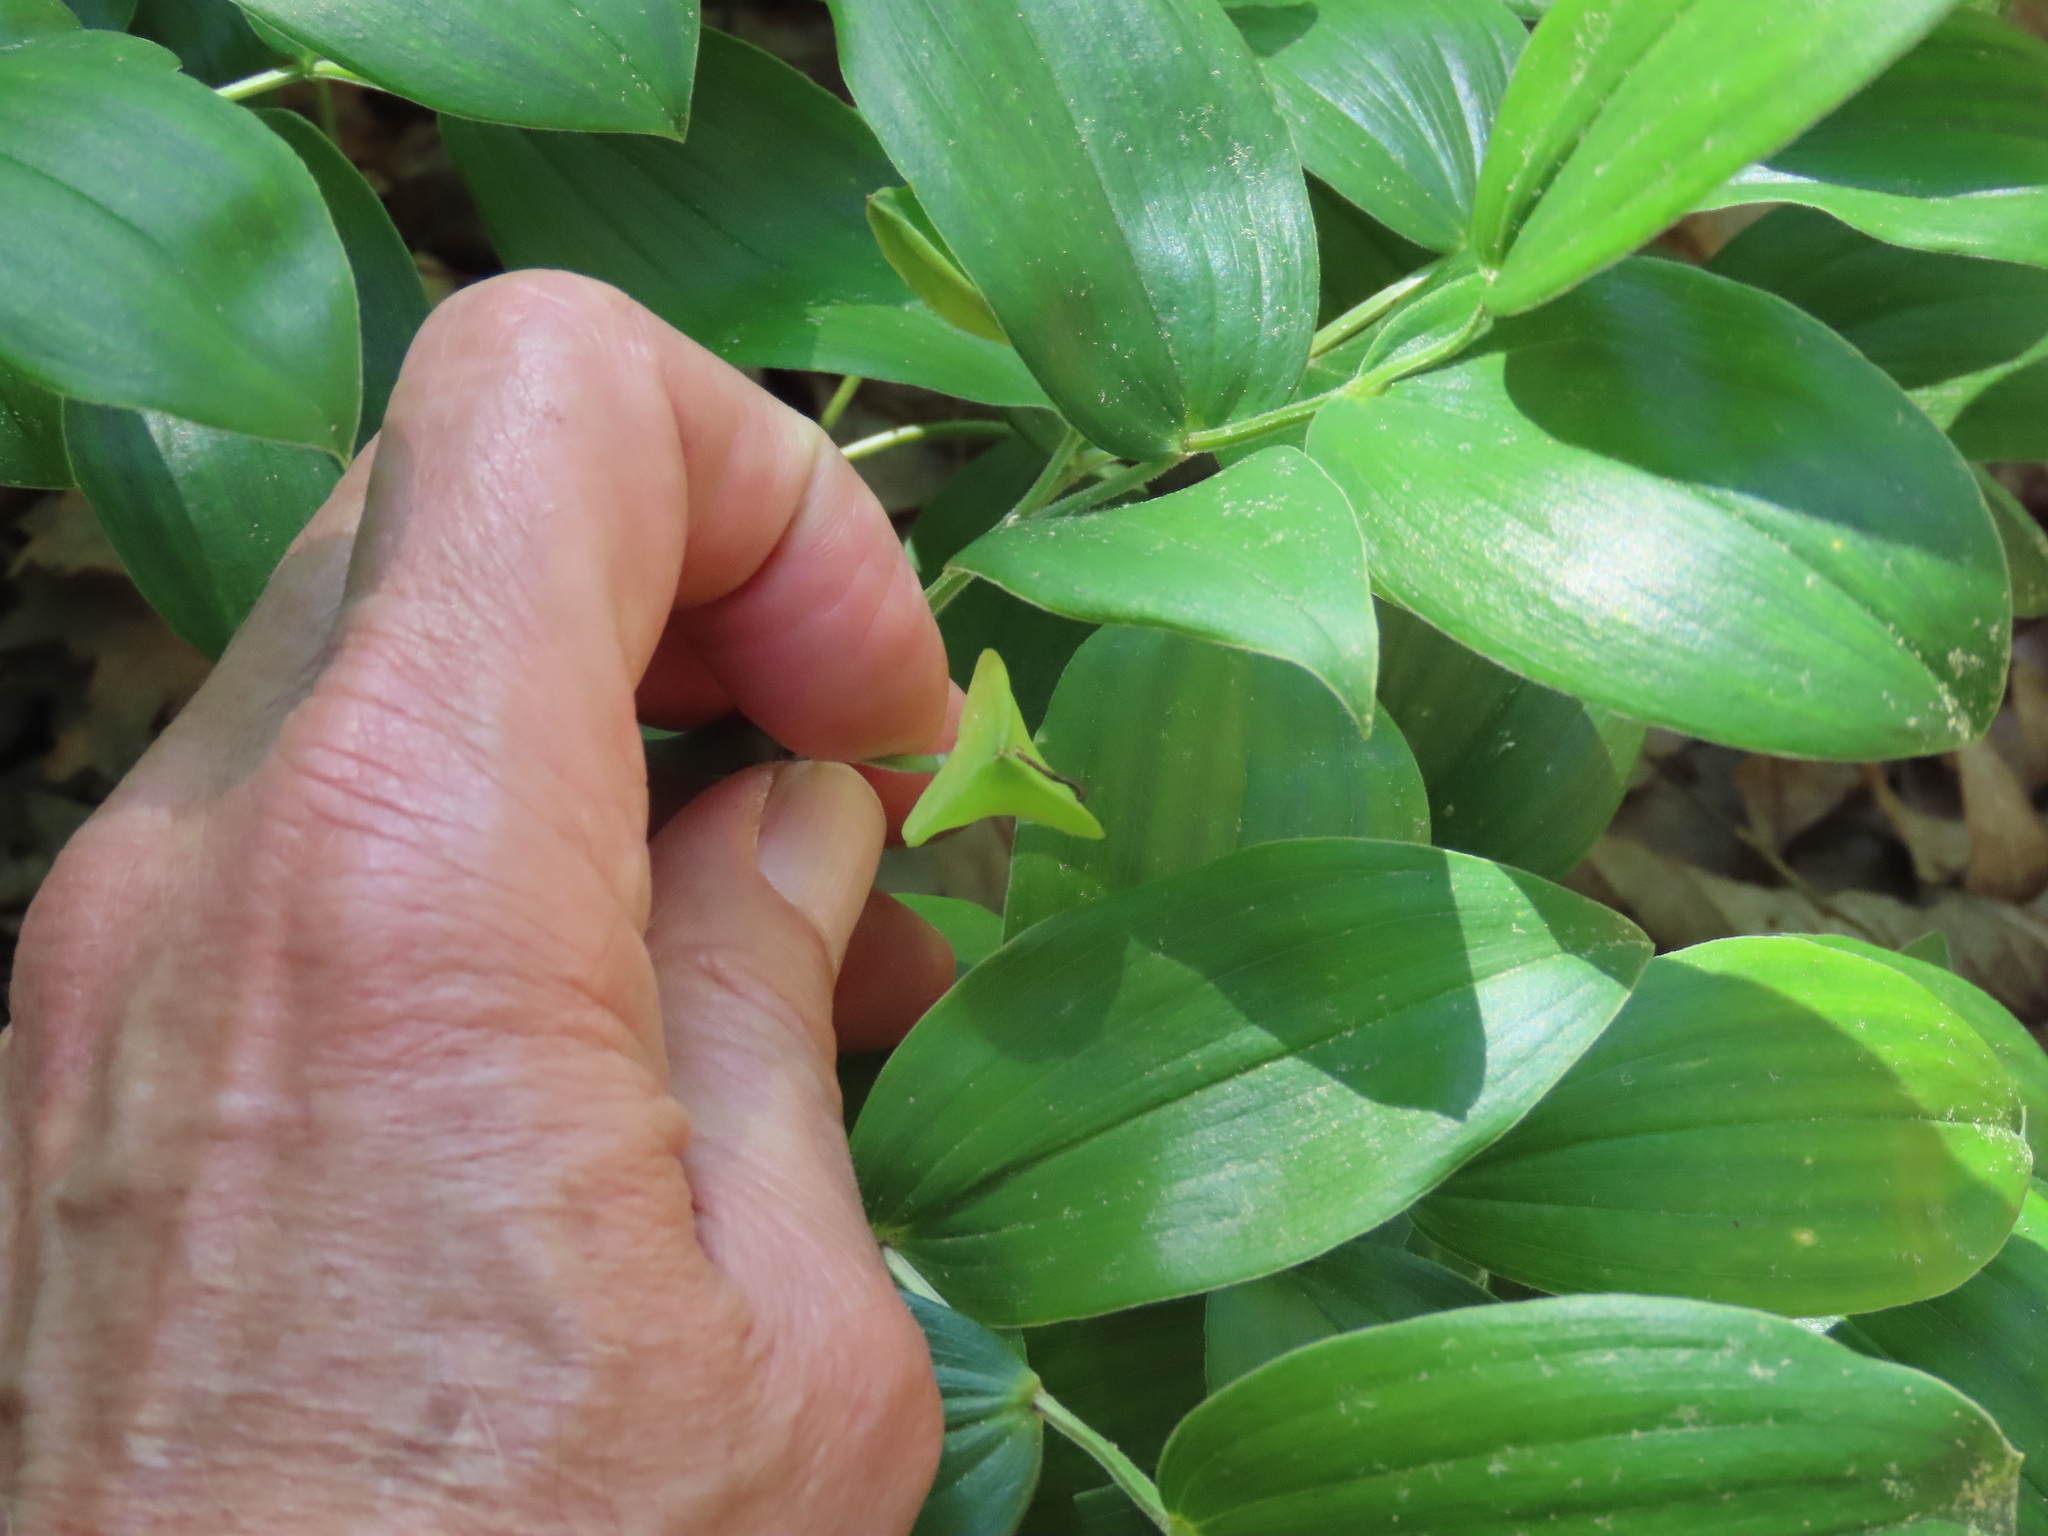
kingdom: Plantae
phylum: Tracheophyta
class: Liliopsida
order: Liliales
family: Colchicaceae
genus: Uvularia
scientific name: Uvularia puberula
